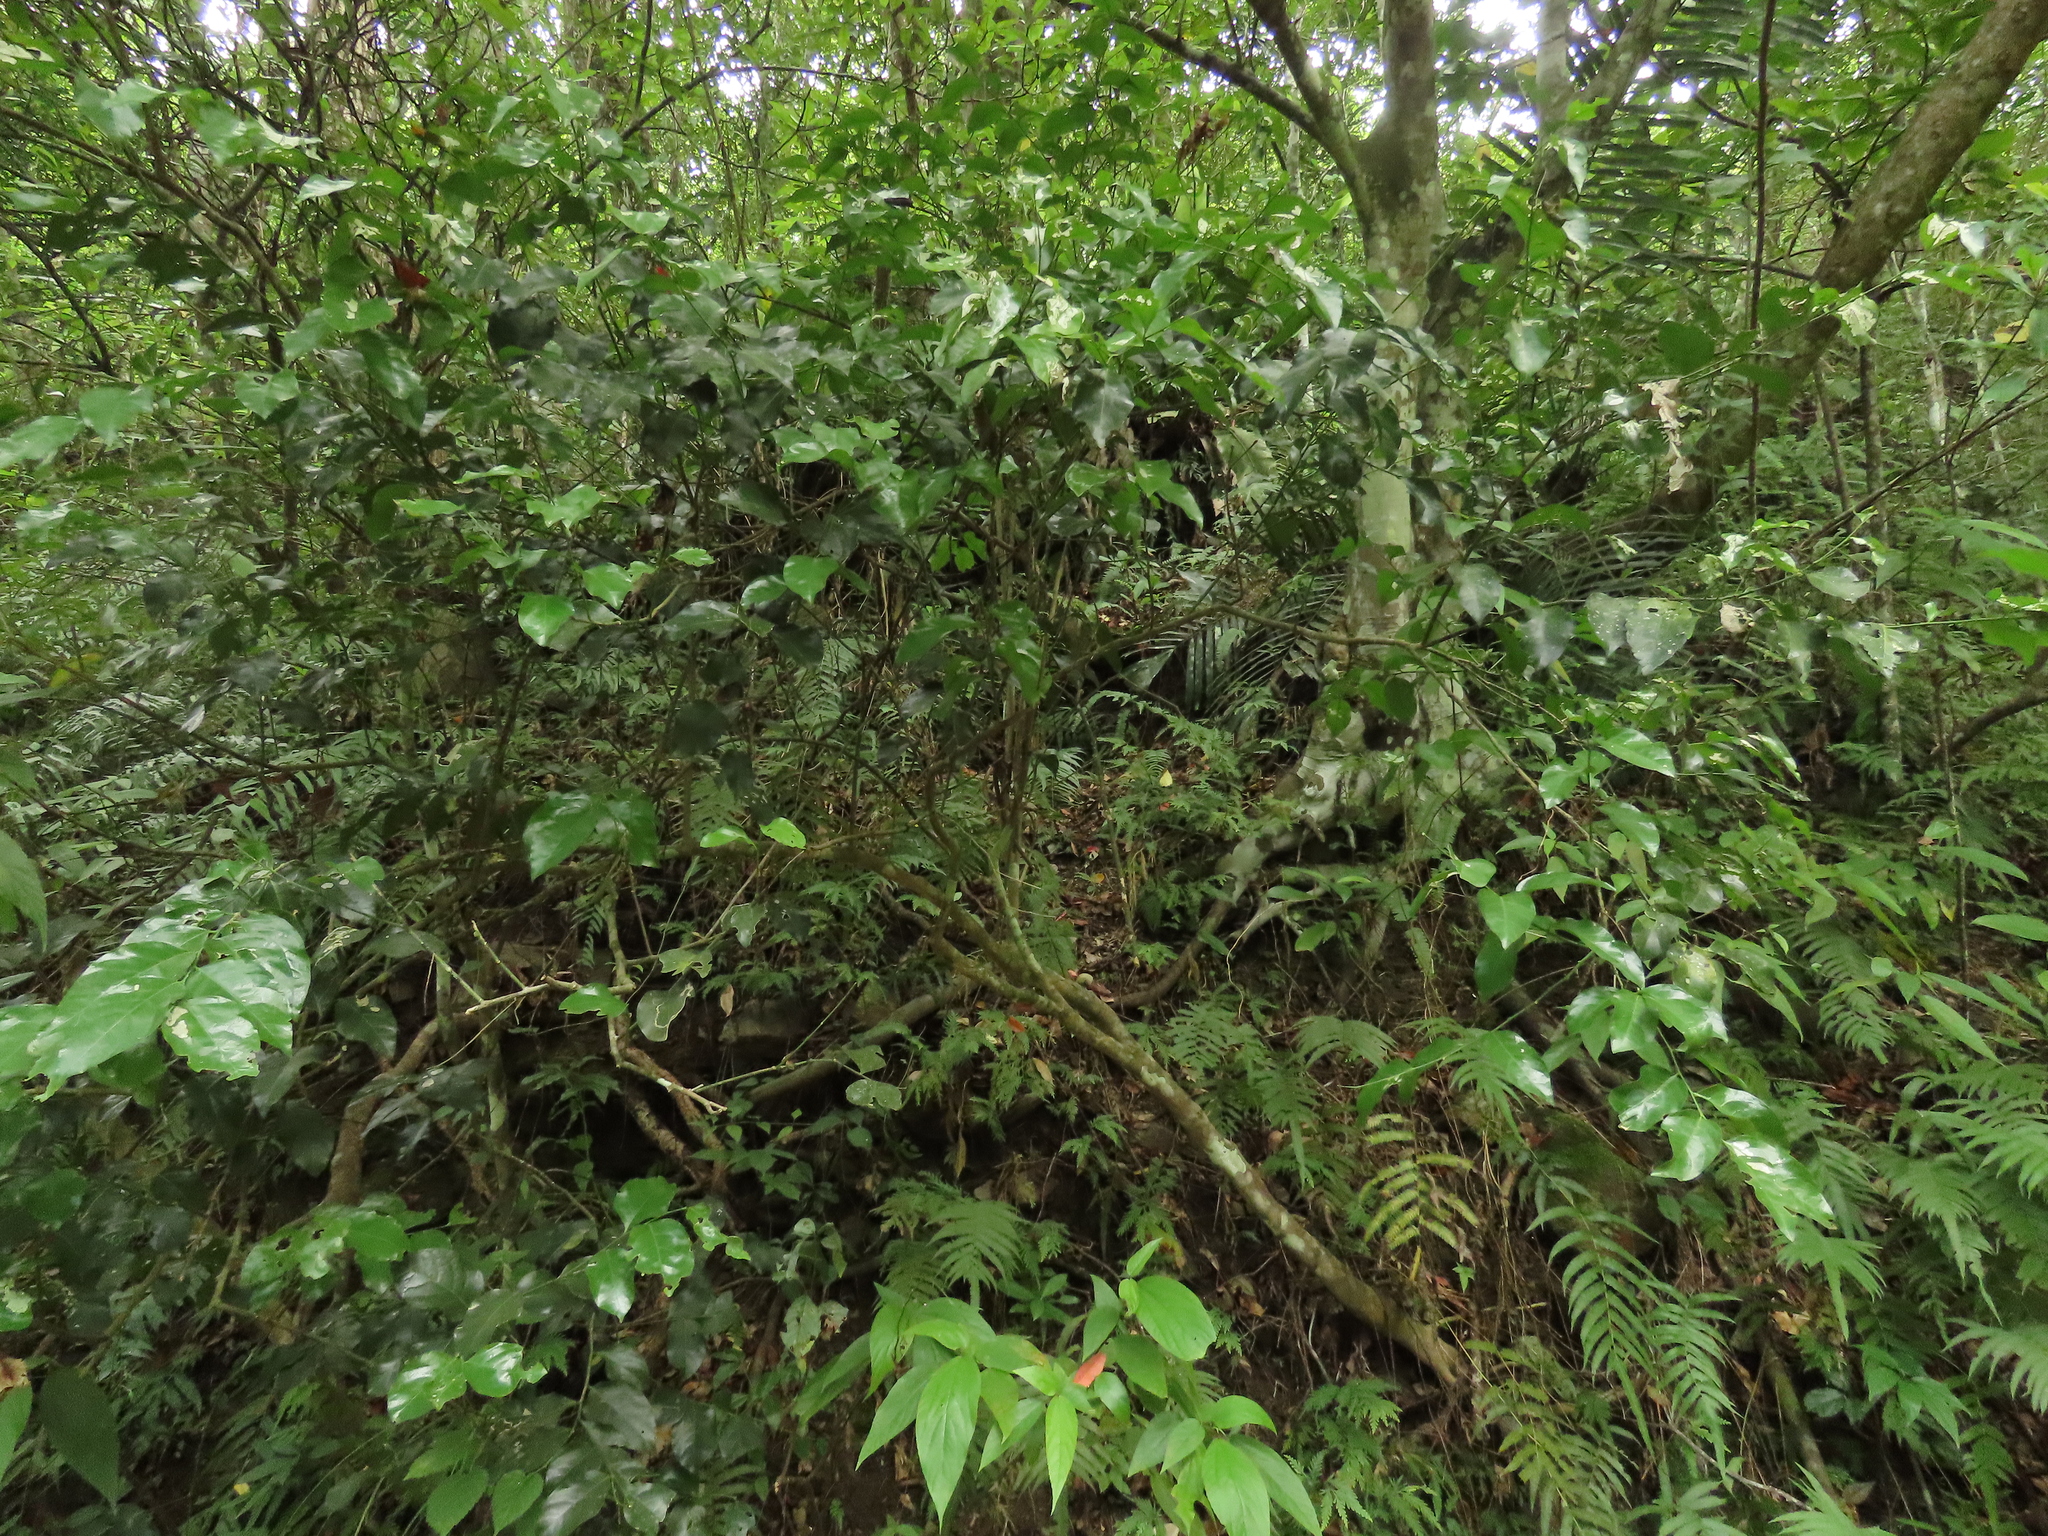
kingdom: Plantae
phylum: Tracheophyta
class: Magnoliopsida
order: Santalales
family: Opiliaceae
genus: Champereia
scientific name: Champereia manillana
